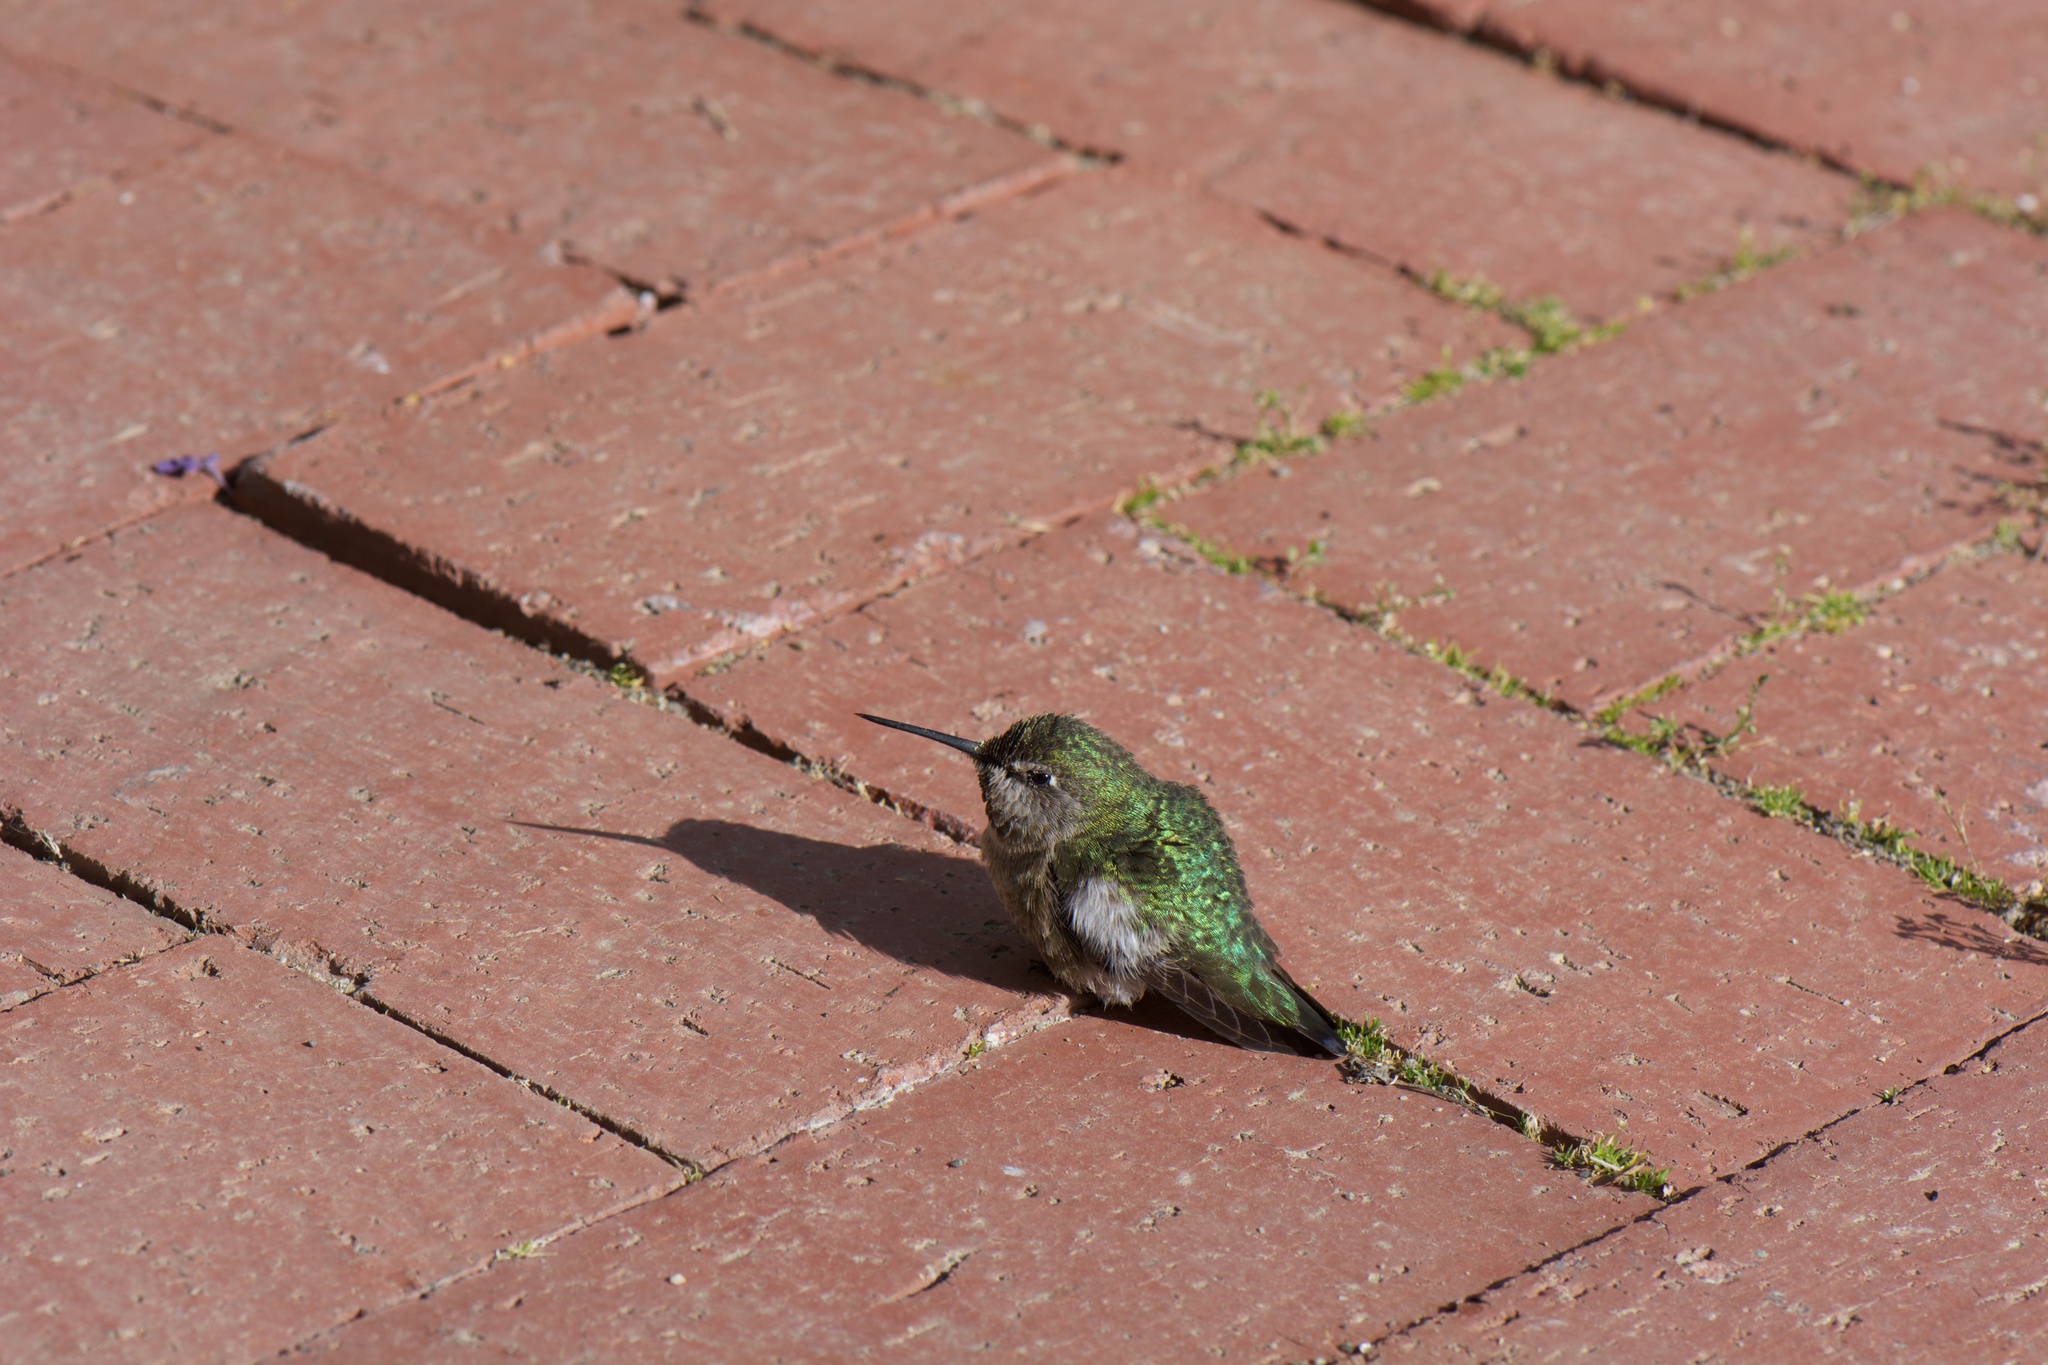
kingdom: Animalia
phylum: Chordata
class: Aves
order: Apodiformes
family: Trochilidae
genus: Calypte
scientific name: Calypte anna
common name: Anna's hummingbird
